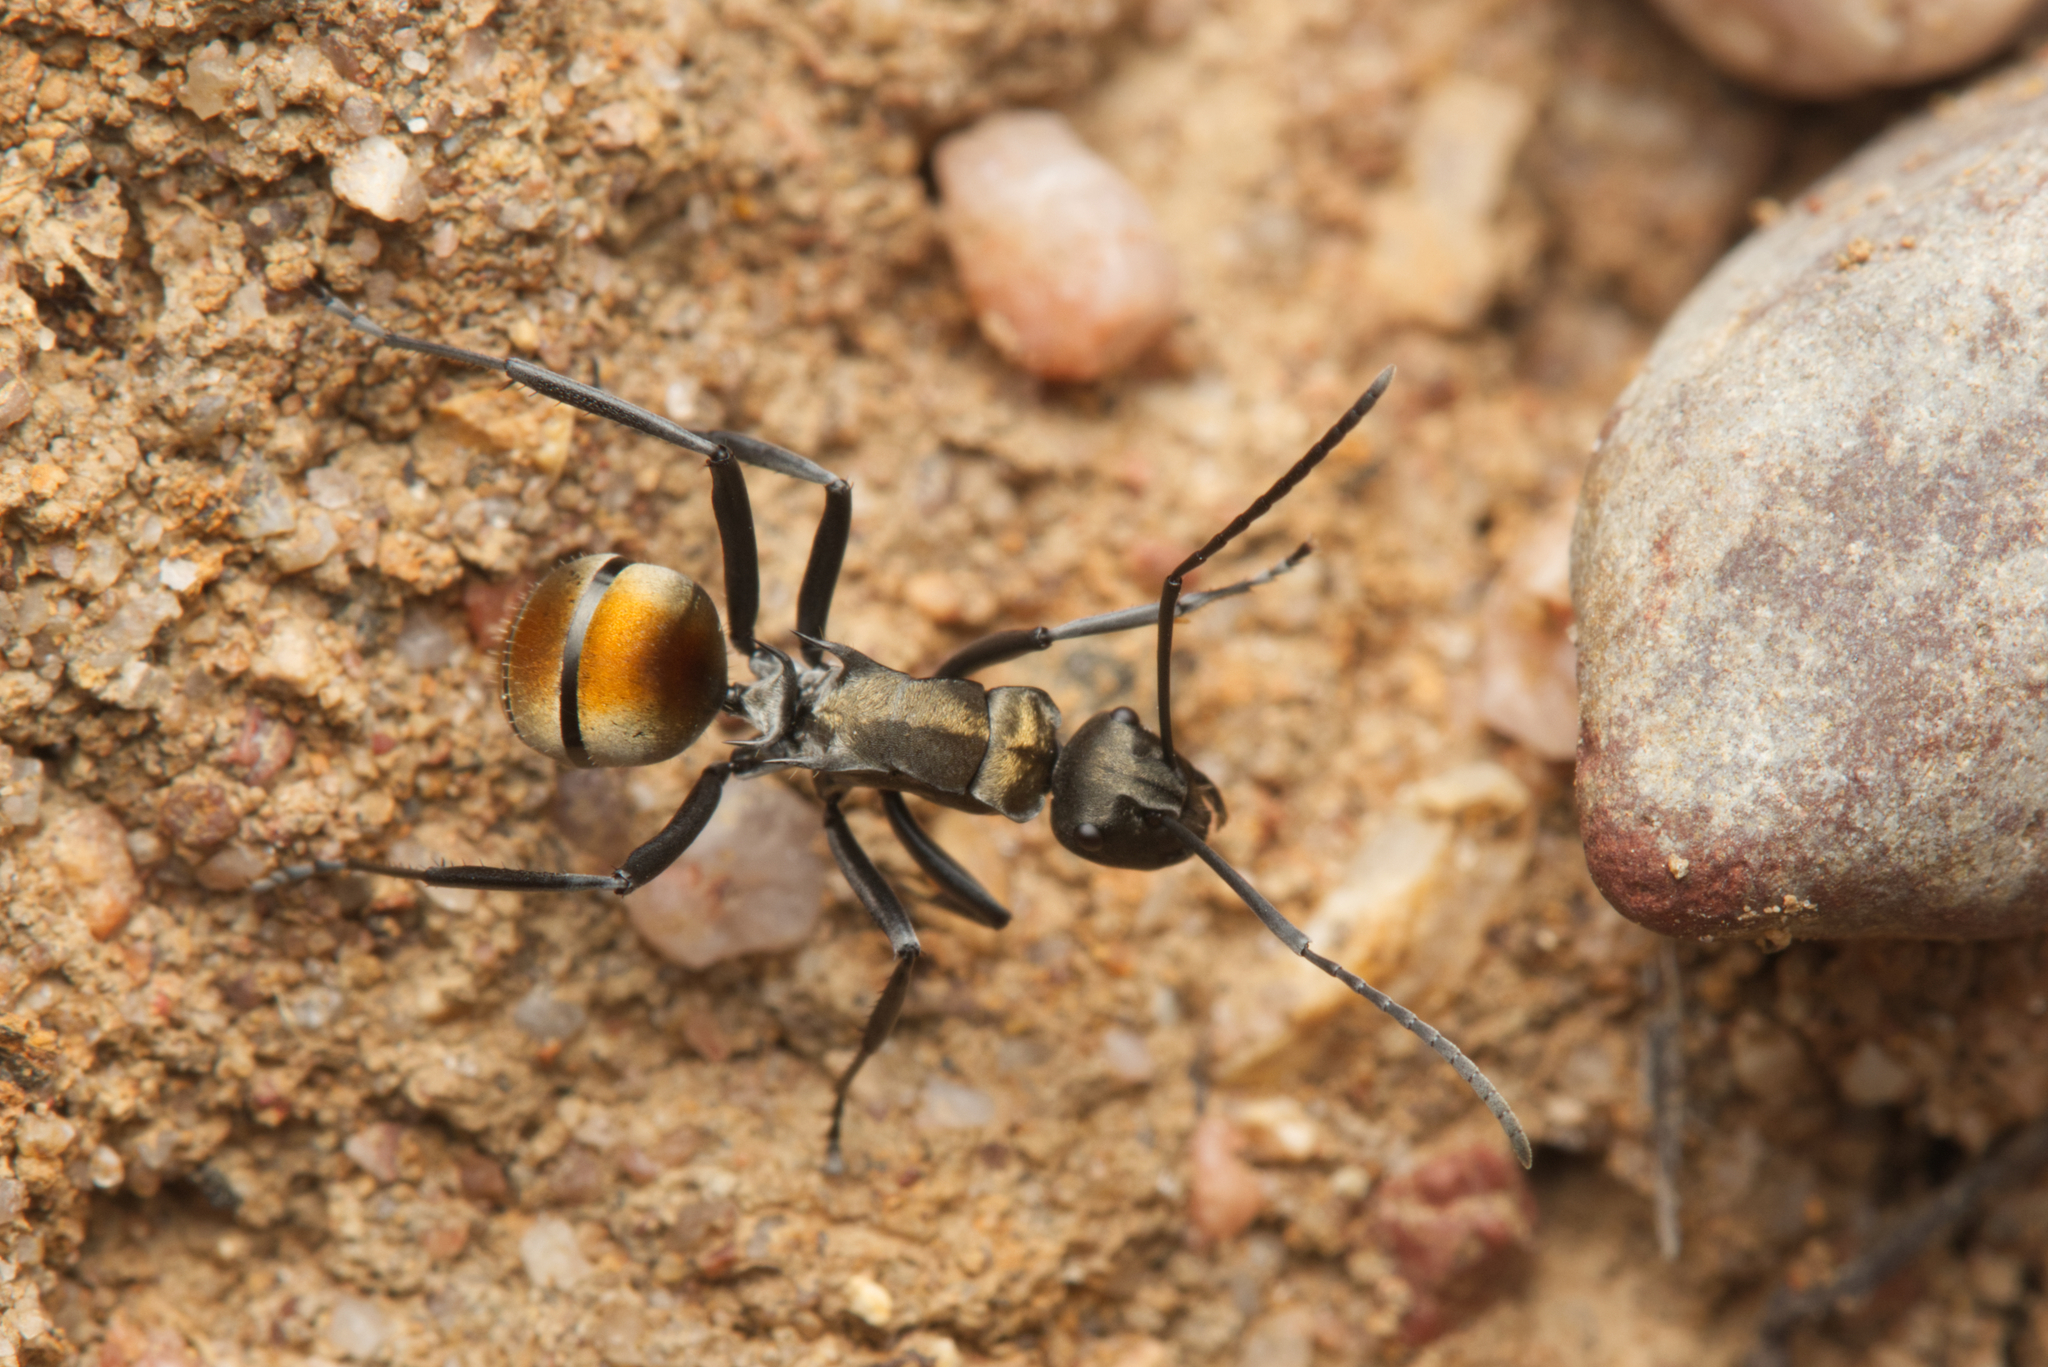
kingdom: Animalia
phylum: Arthropoda
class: Insecta
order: Hymenoptera
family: Formicidae
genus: Polyrhachis
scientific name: Polyrhachis ammon
